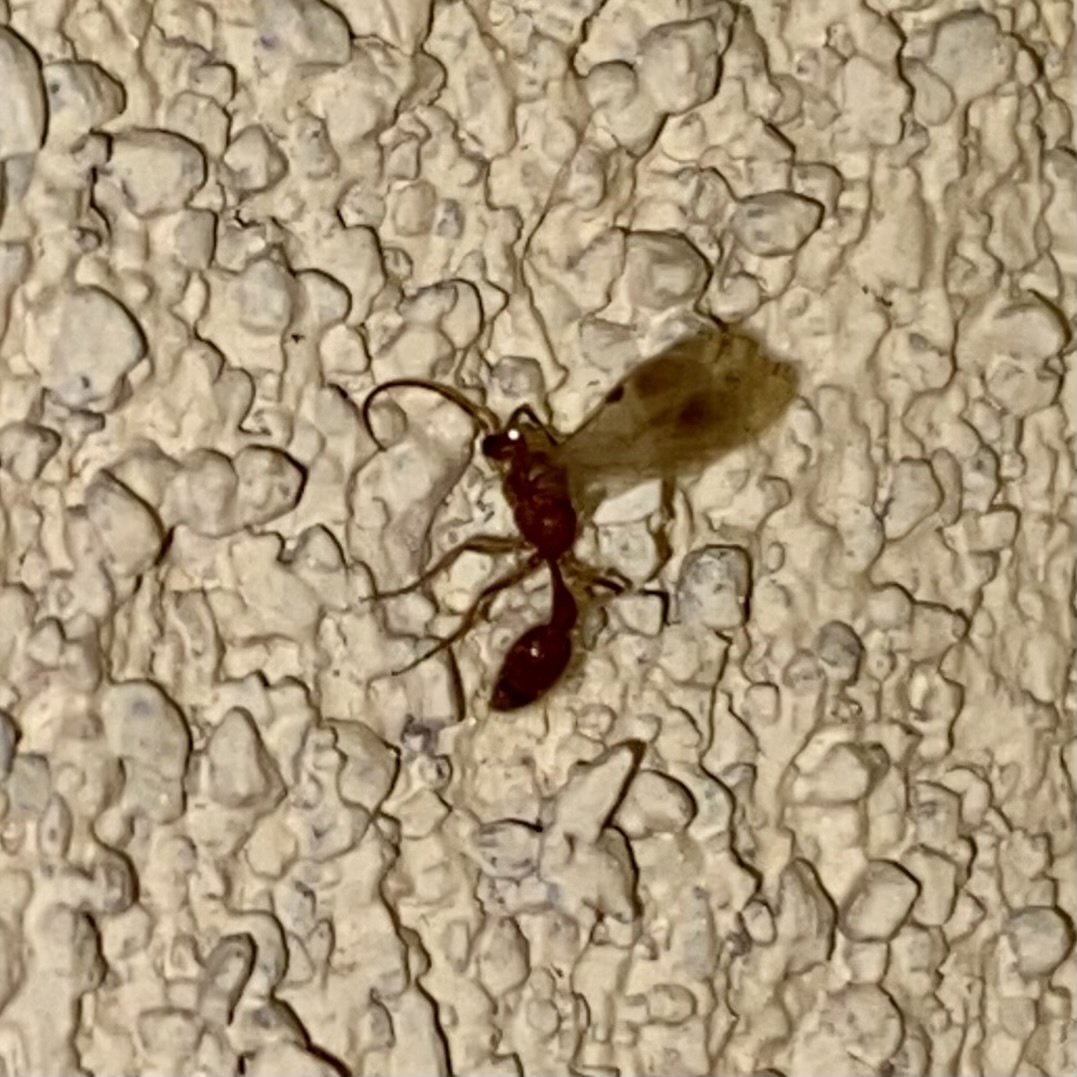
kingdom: Animalia
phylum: Arthropoda
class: Insecta
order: Hymenoptera
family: Chyphotidae
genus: Chyphotes
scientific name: Chyphotes
